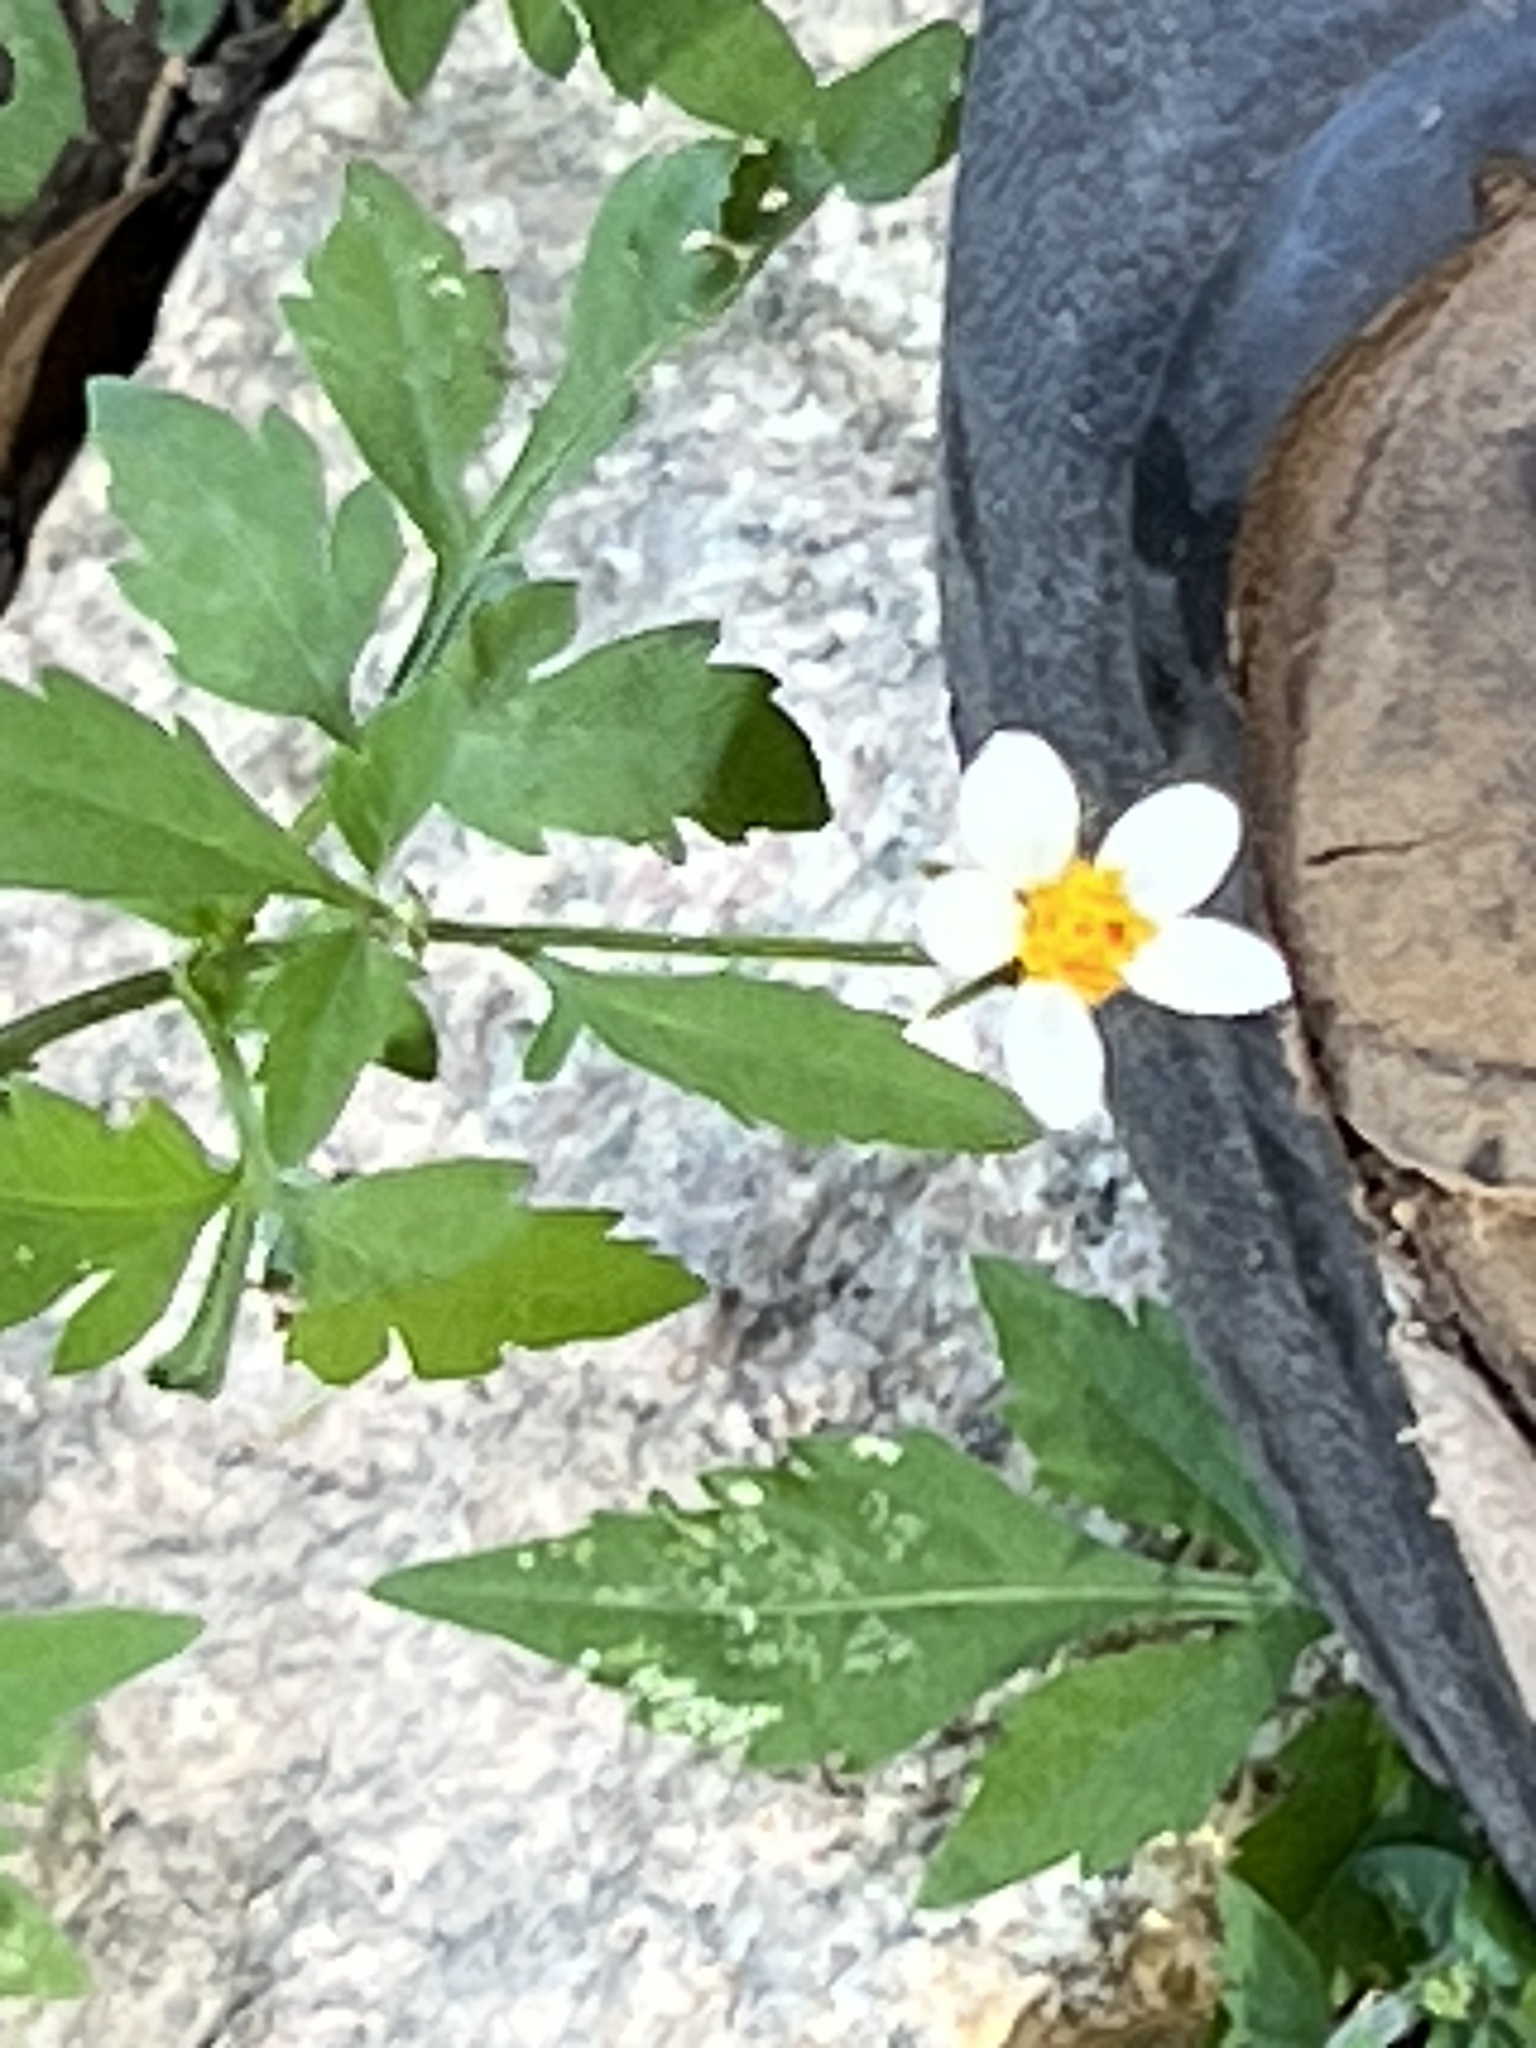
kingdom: Plantae
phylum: Tracheophyta
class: Magnoliopsida
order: Asterales
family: Asteraceae
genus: Bidens
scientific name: Bidens bigelovii
